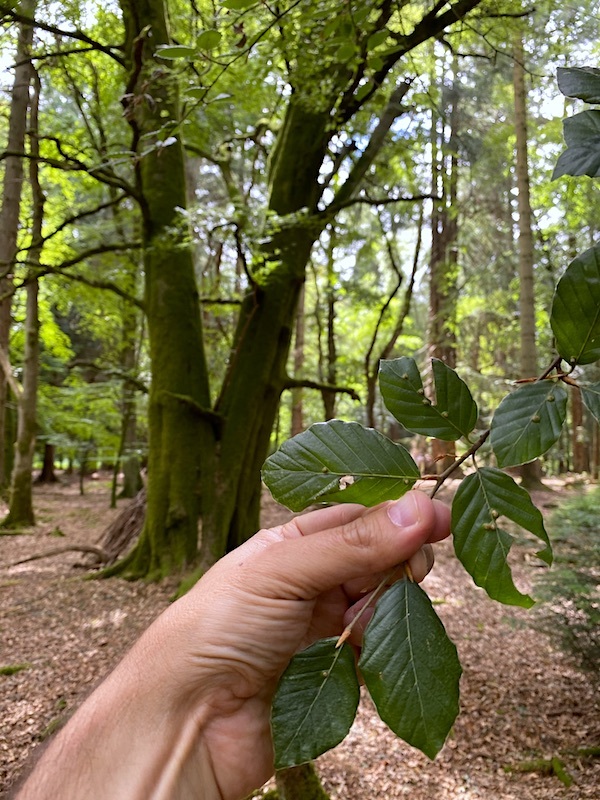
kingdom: Plantae
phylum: Tracheophyta
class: Magnoliopsida
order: Fagales
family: Fagaceae
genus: Fagus
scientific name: Fagus sylvatica
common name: Beech
